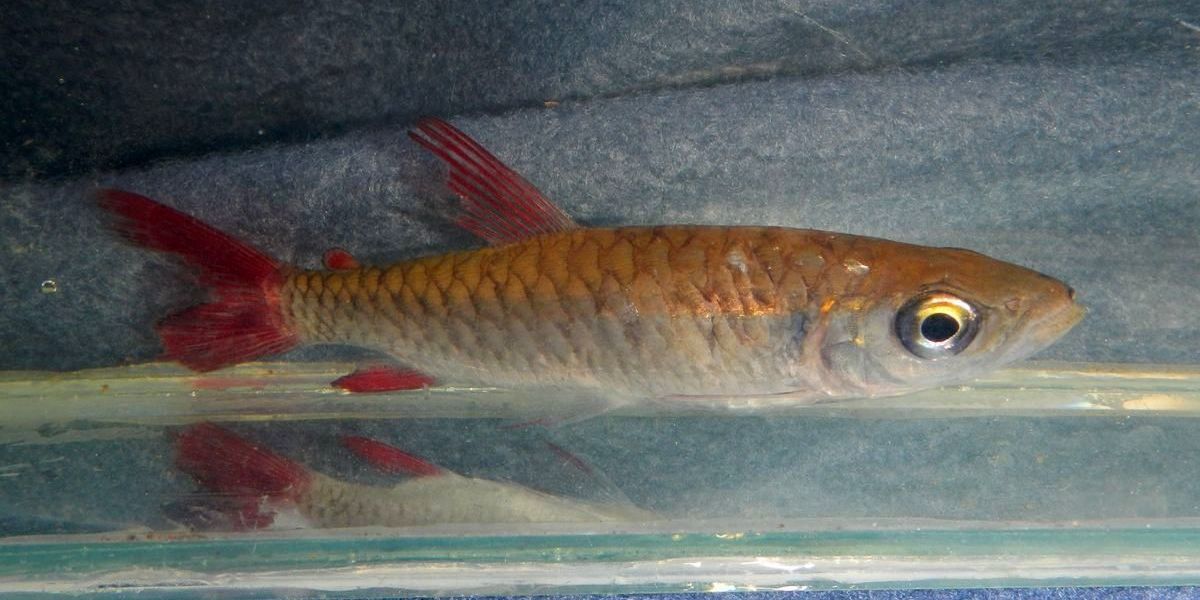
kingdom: Animalia
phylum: Chordata
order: Characiformes
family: Characidae
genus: Chalceus
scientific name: Chalceus macrolepidotus
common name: Pink-tailed characin
